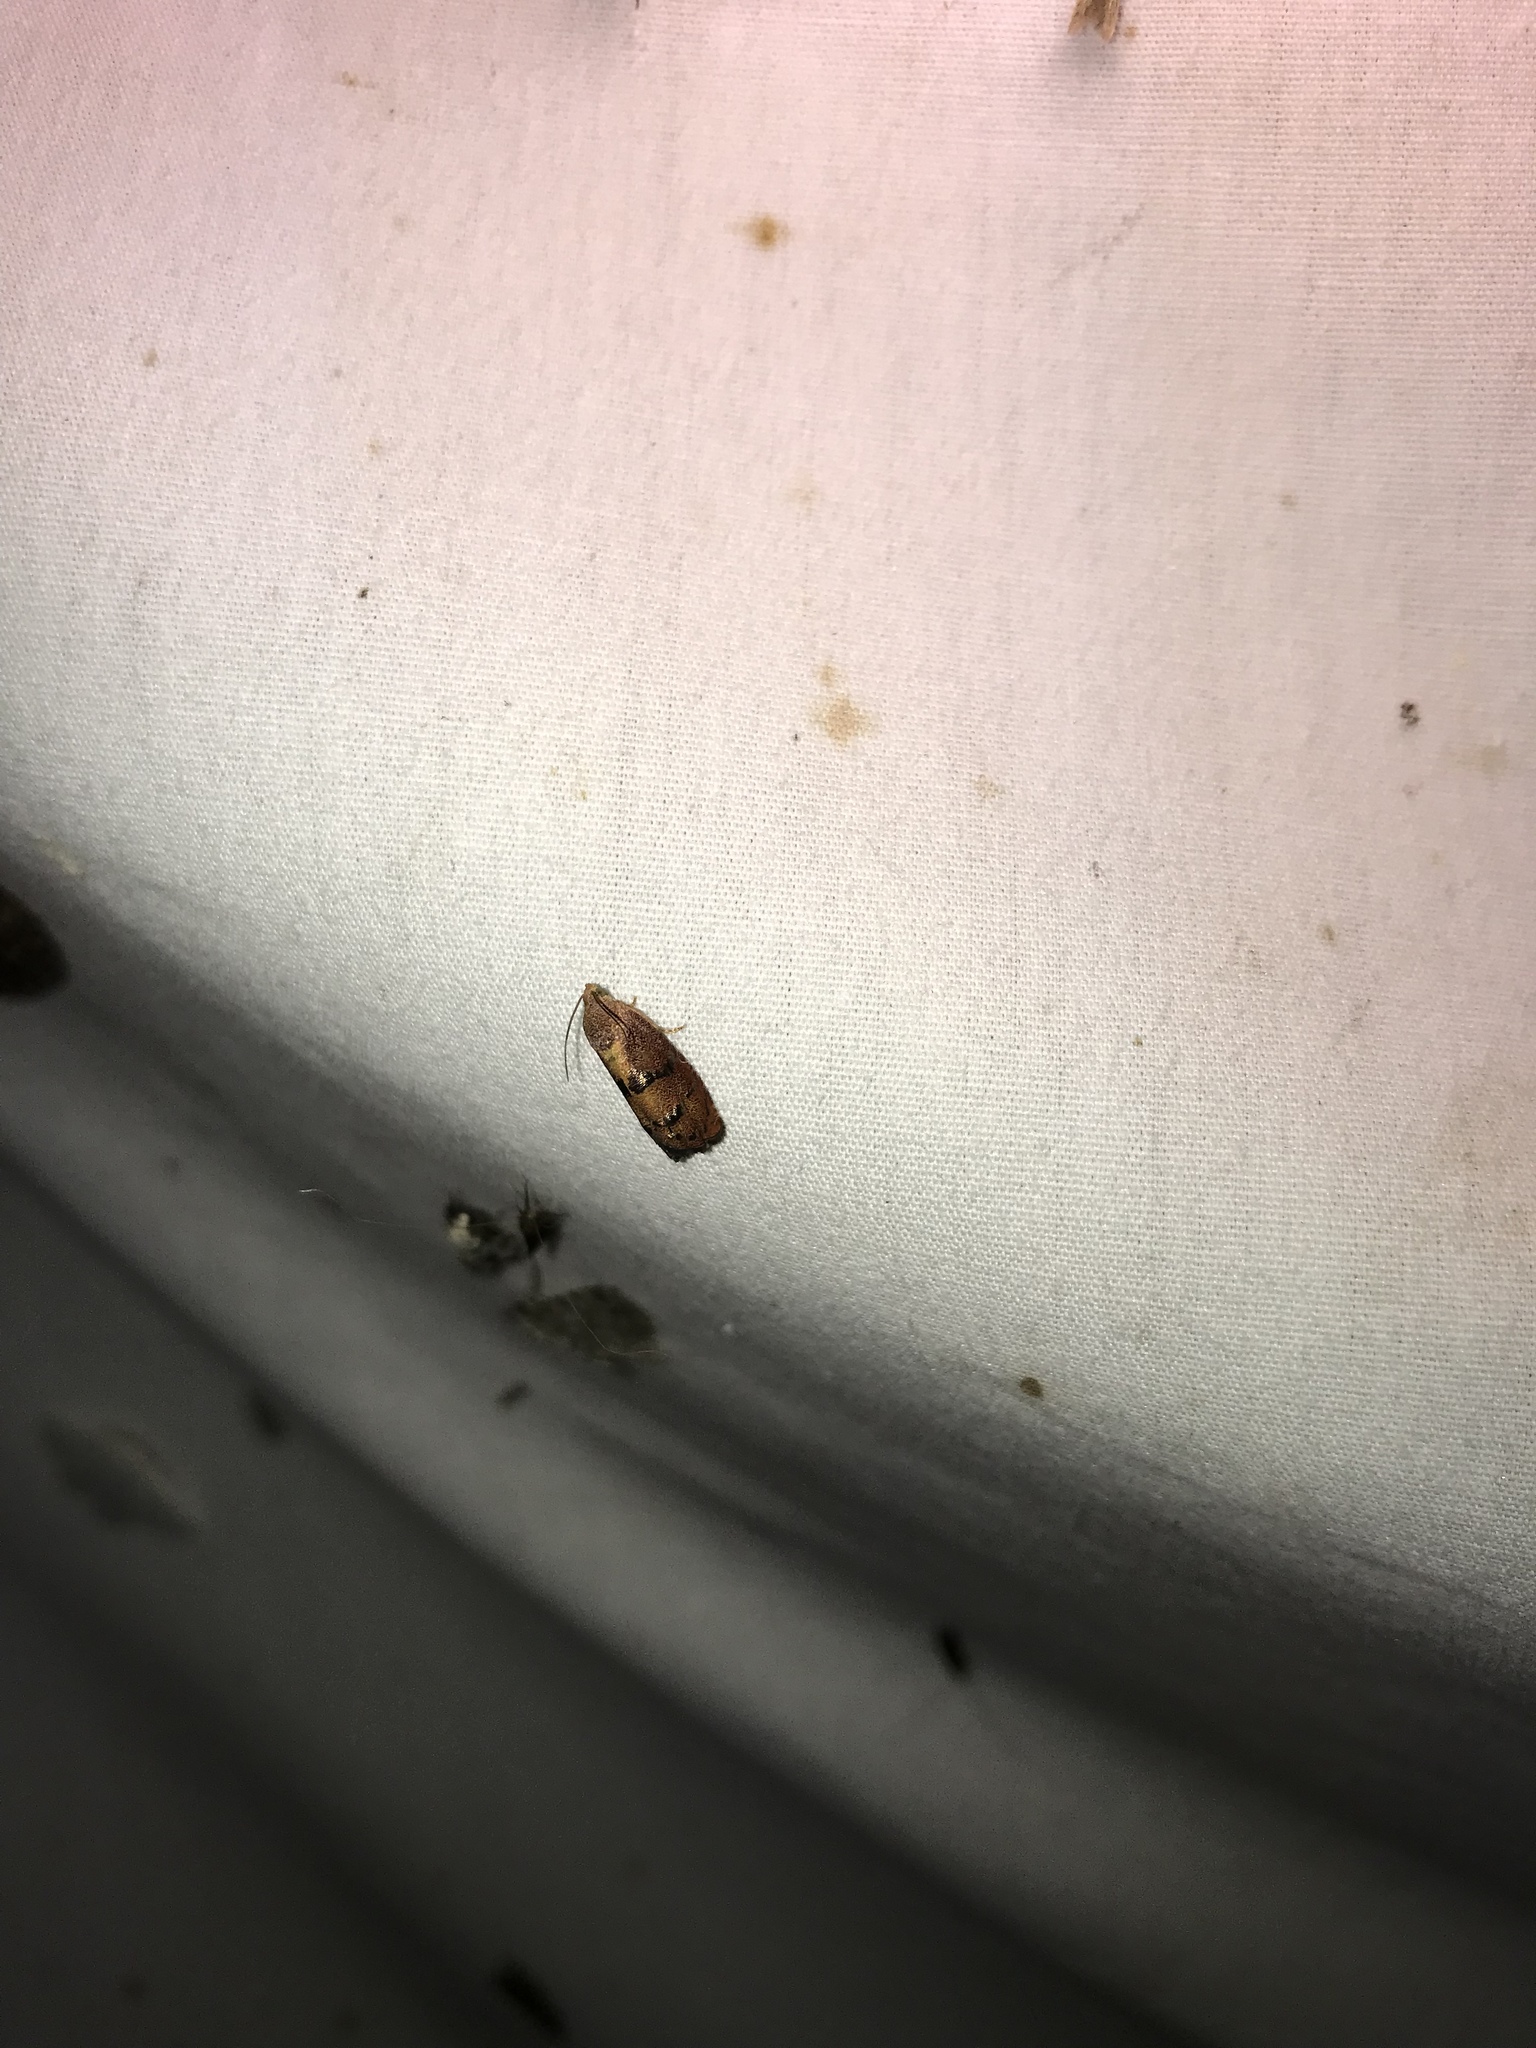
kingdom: Animalia
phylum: Arthropoda
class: Insecta
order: Lepidoptera
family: Tortricidae
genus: Cydia
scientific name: Cydia latiferreana
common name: Filbertworm moth
